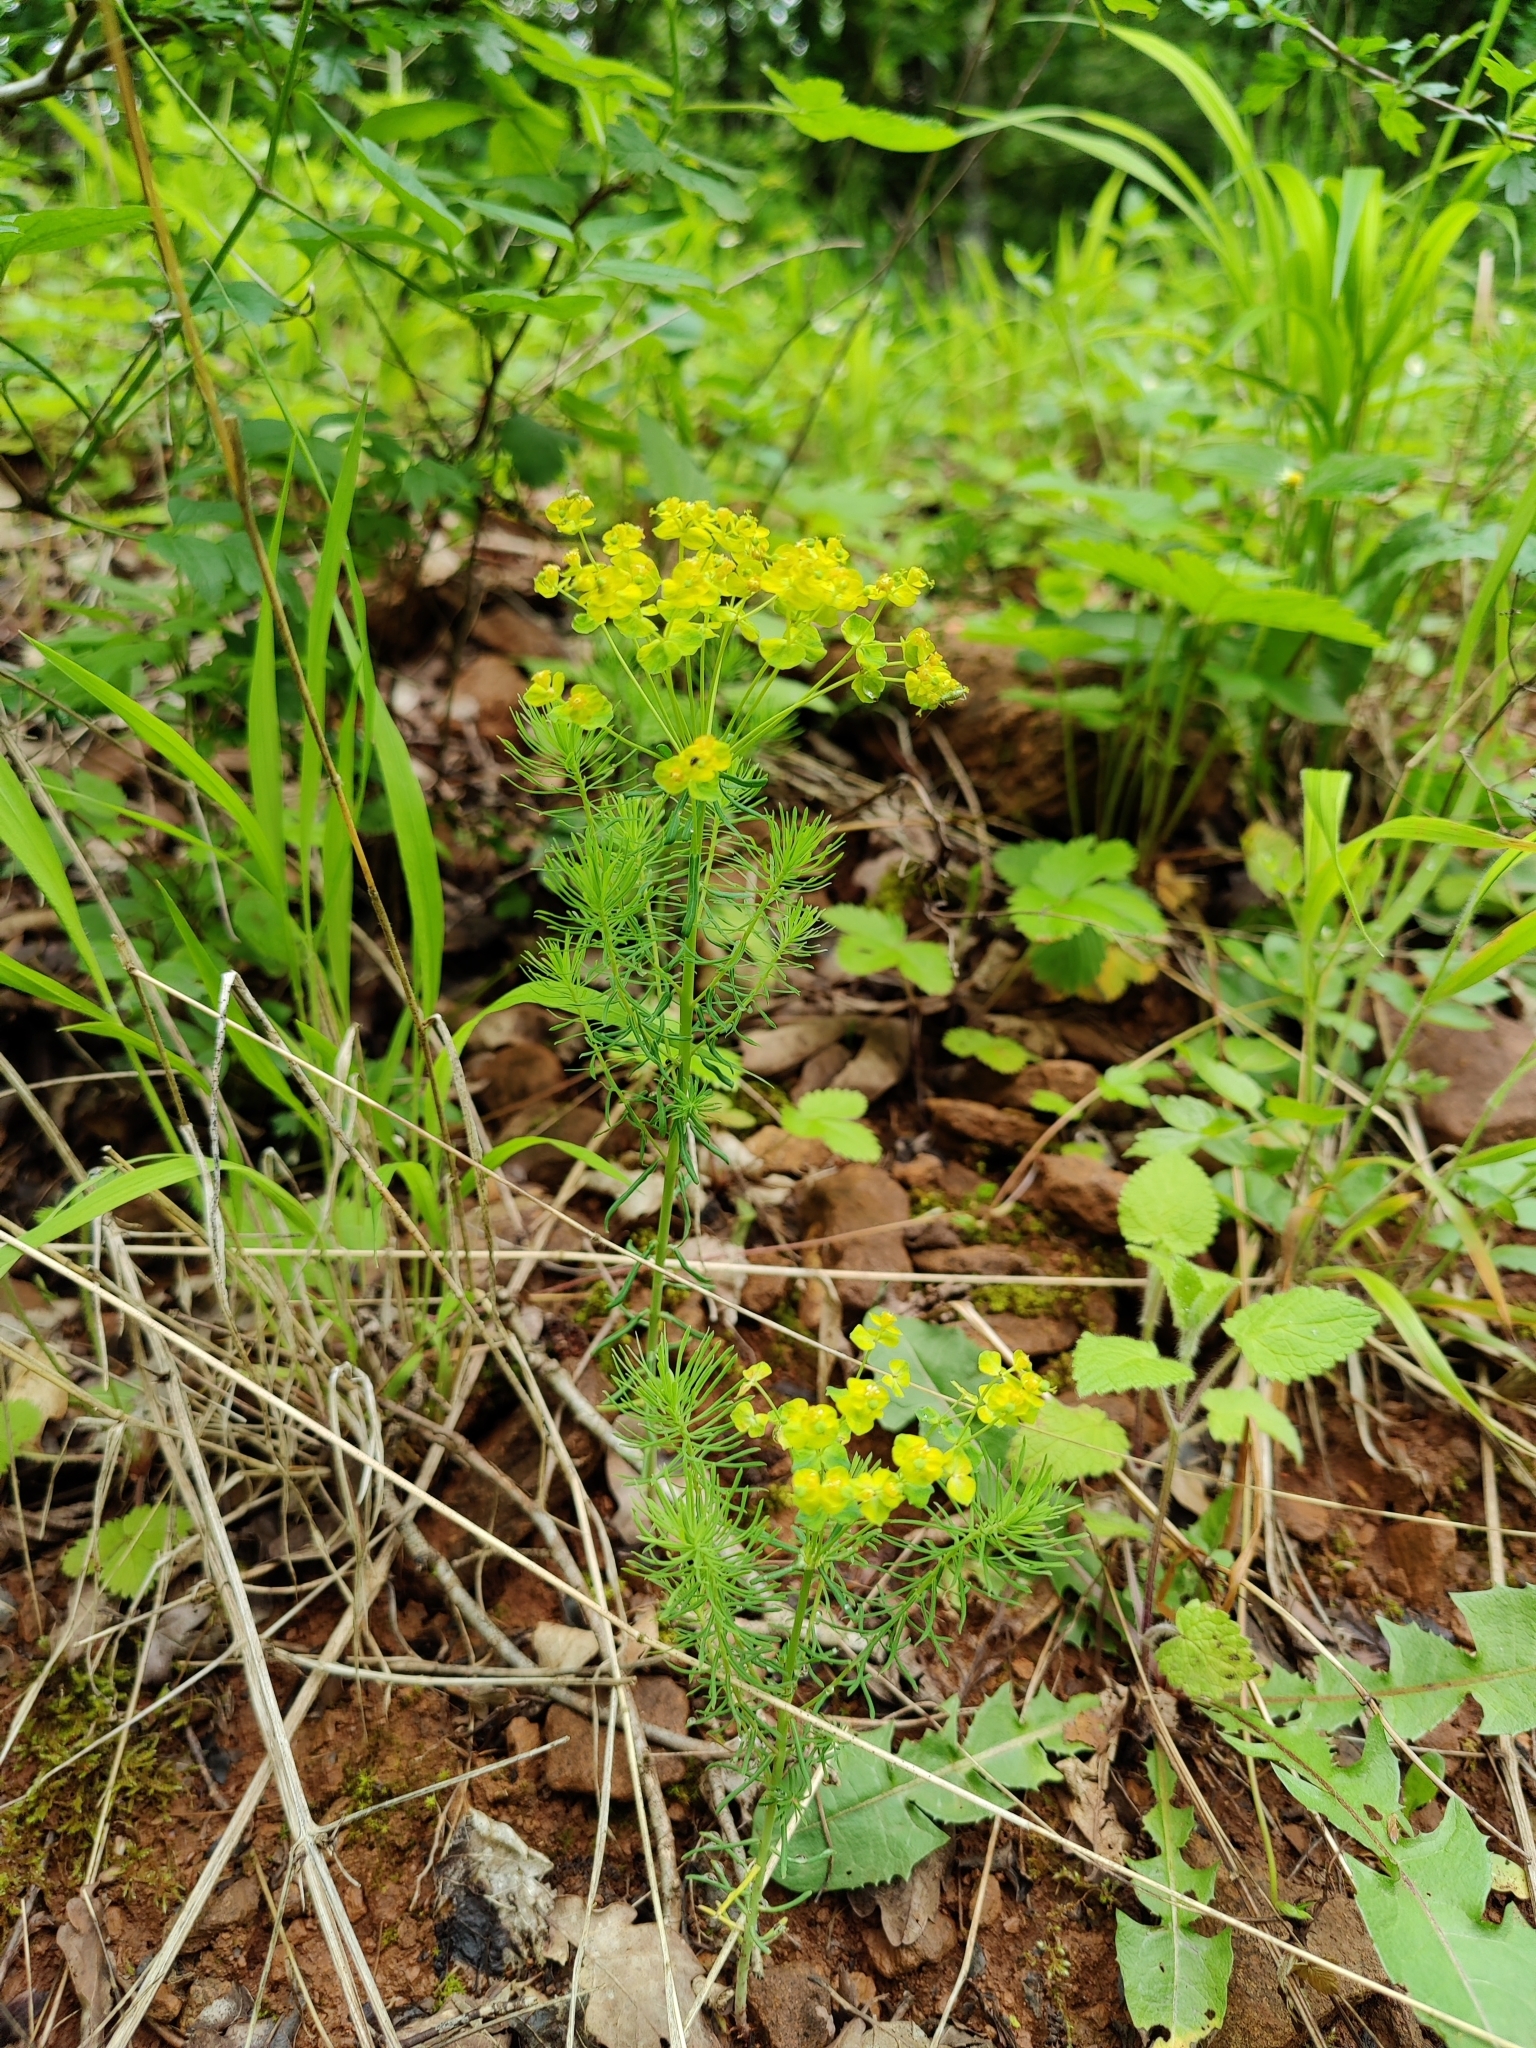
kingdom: Plantae
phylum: Tracheophyta
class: Magnoliopsida
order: Malpighiales
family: Euphorbiaceae
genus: Euphorbia
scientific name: Euphorbia cyparissias
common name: Cypress spurge
